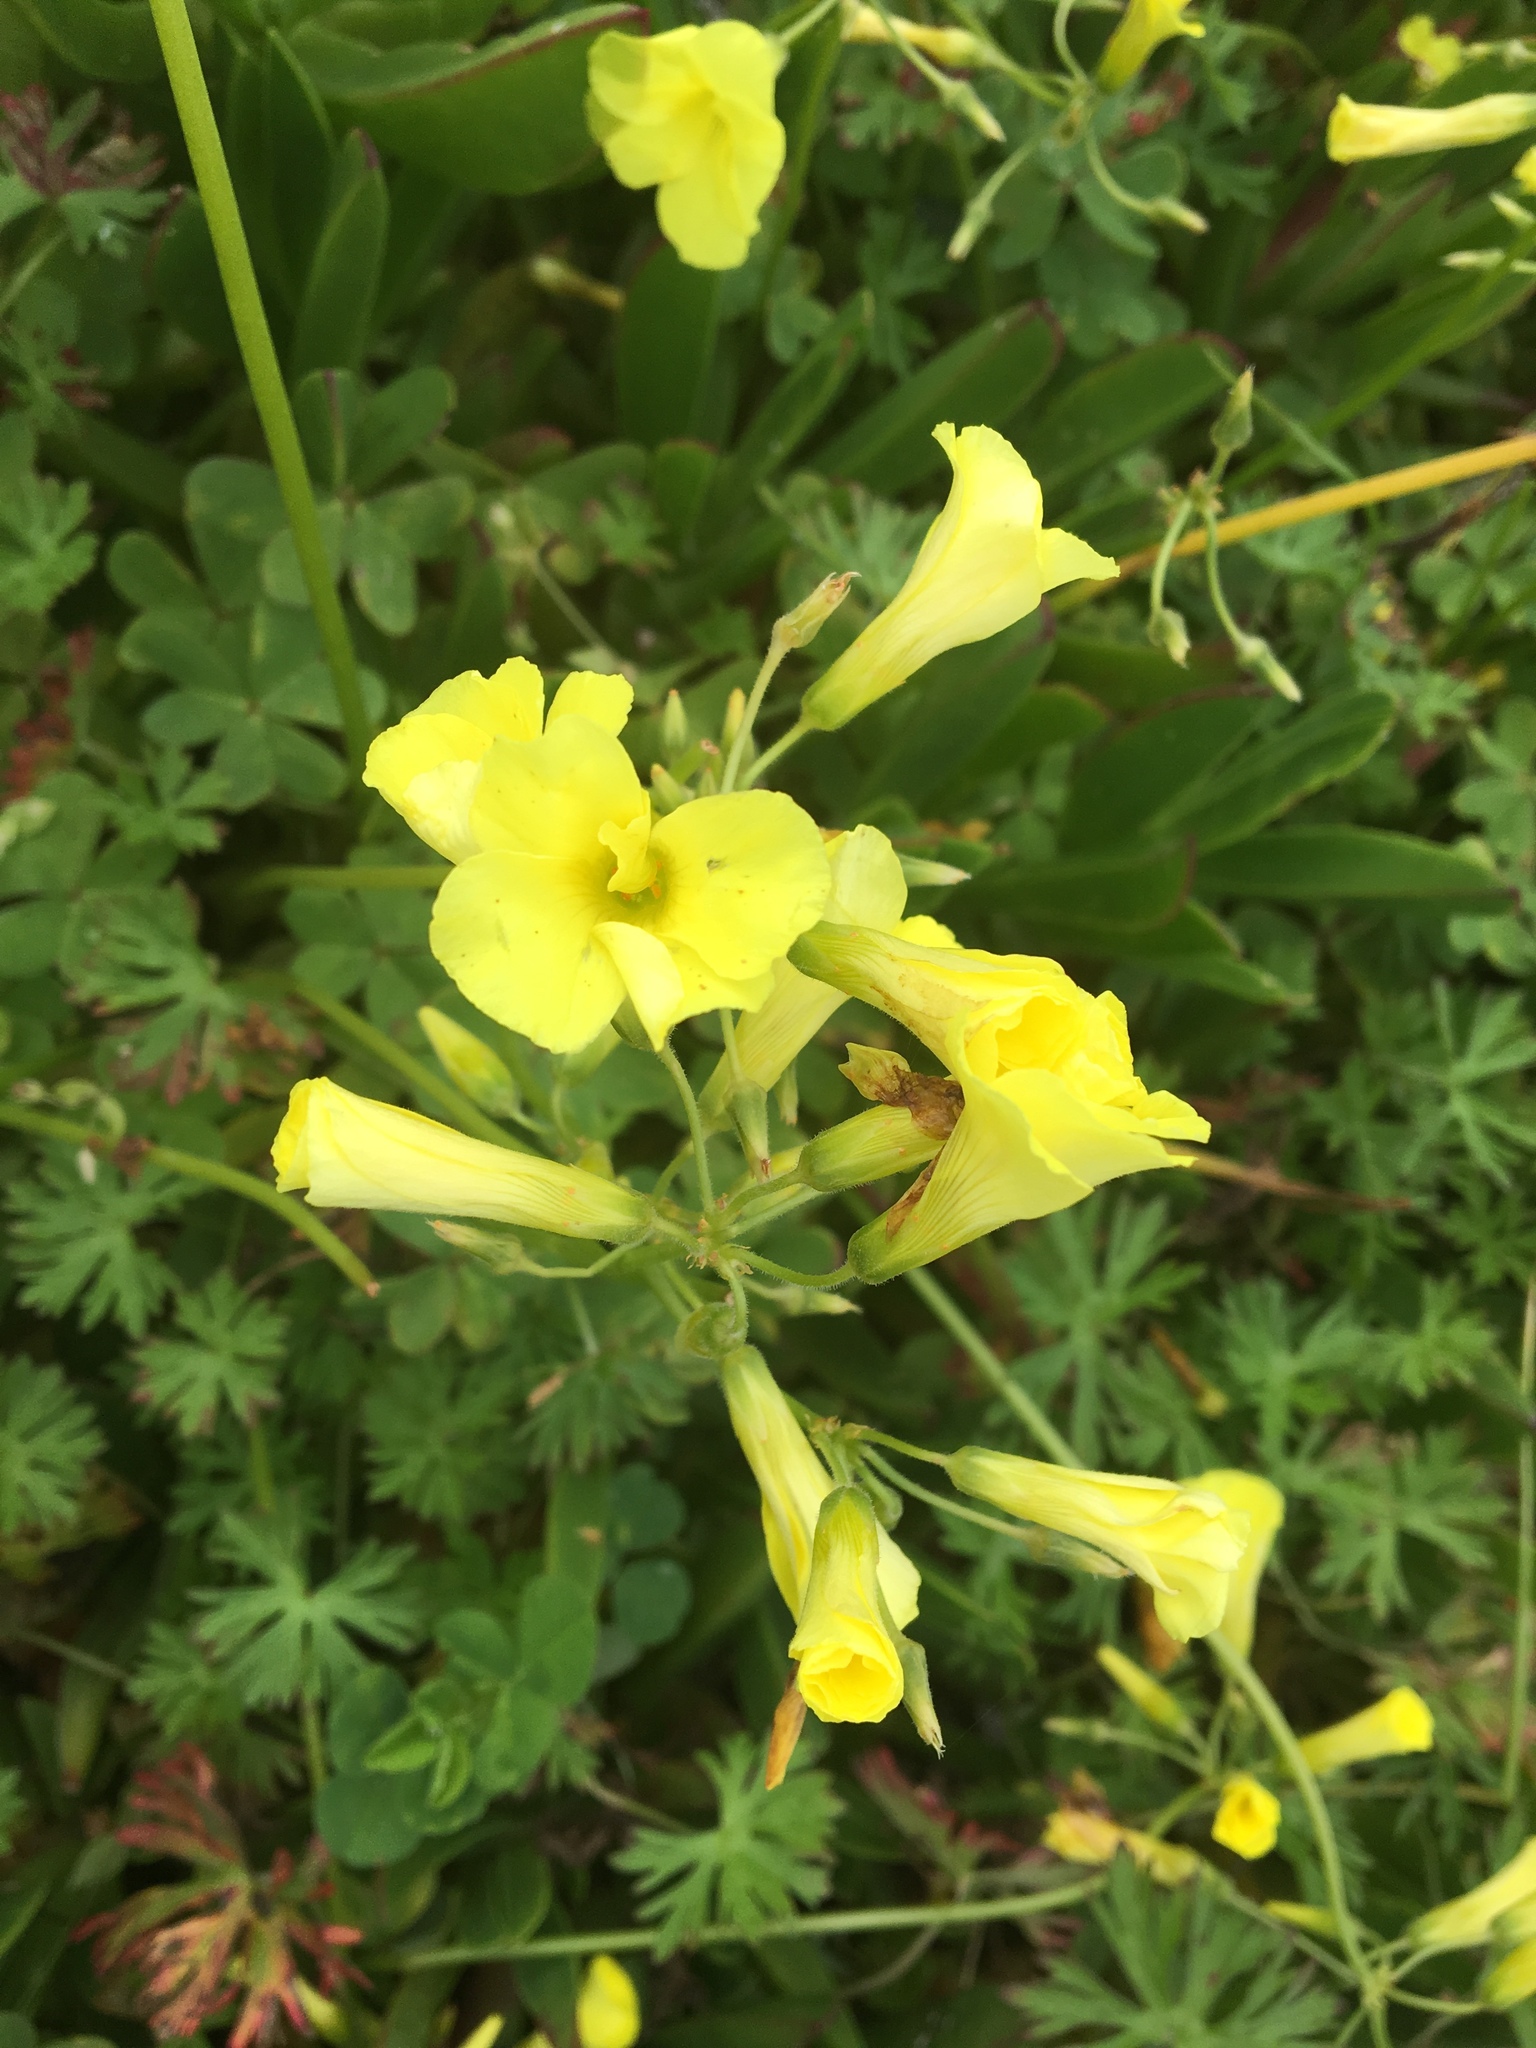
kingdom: Plantae
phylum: Tracheophyta
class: Magnoliopsida
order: Oxalidales
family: Oxalidaceae
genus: Oxalis
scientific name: Oxalis pes-caprae
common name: Bermuda-buttercup
